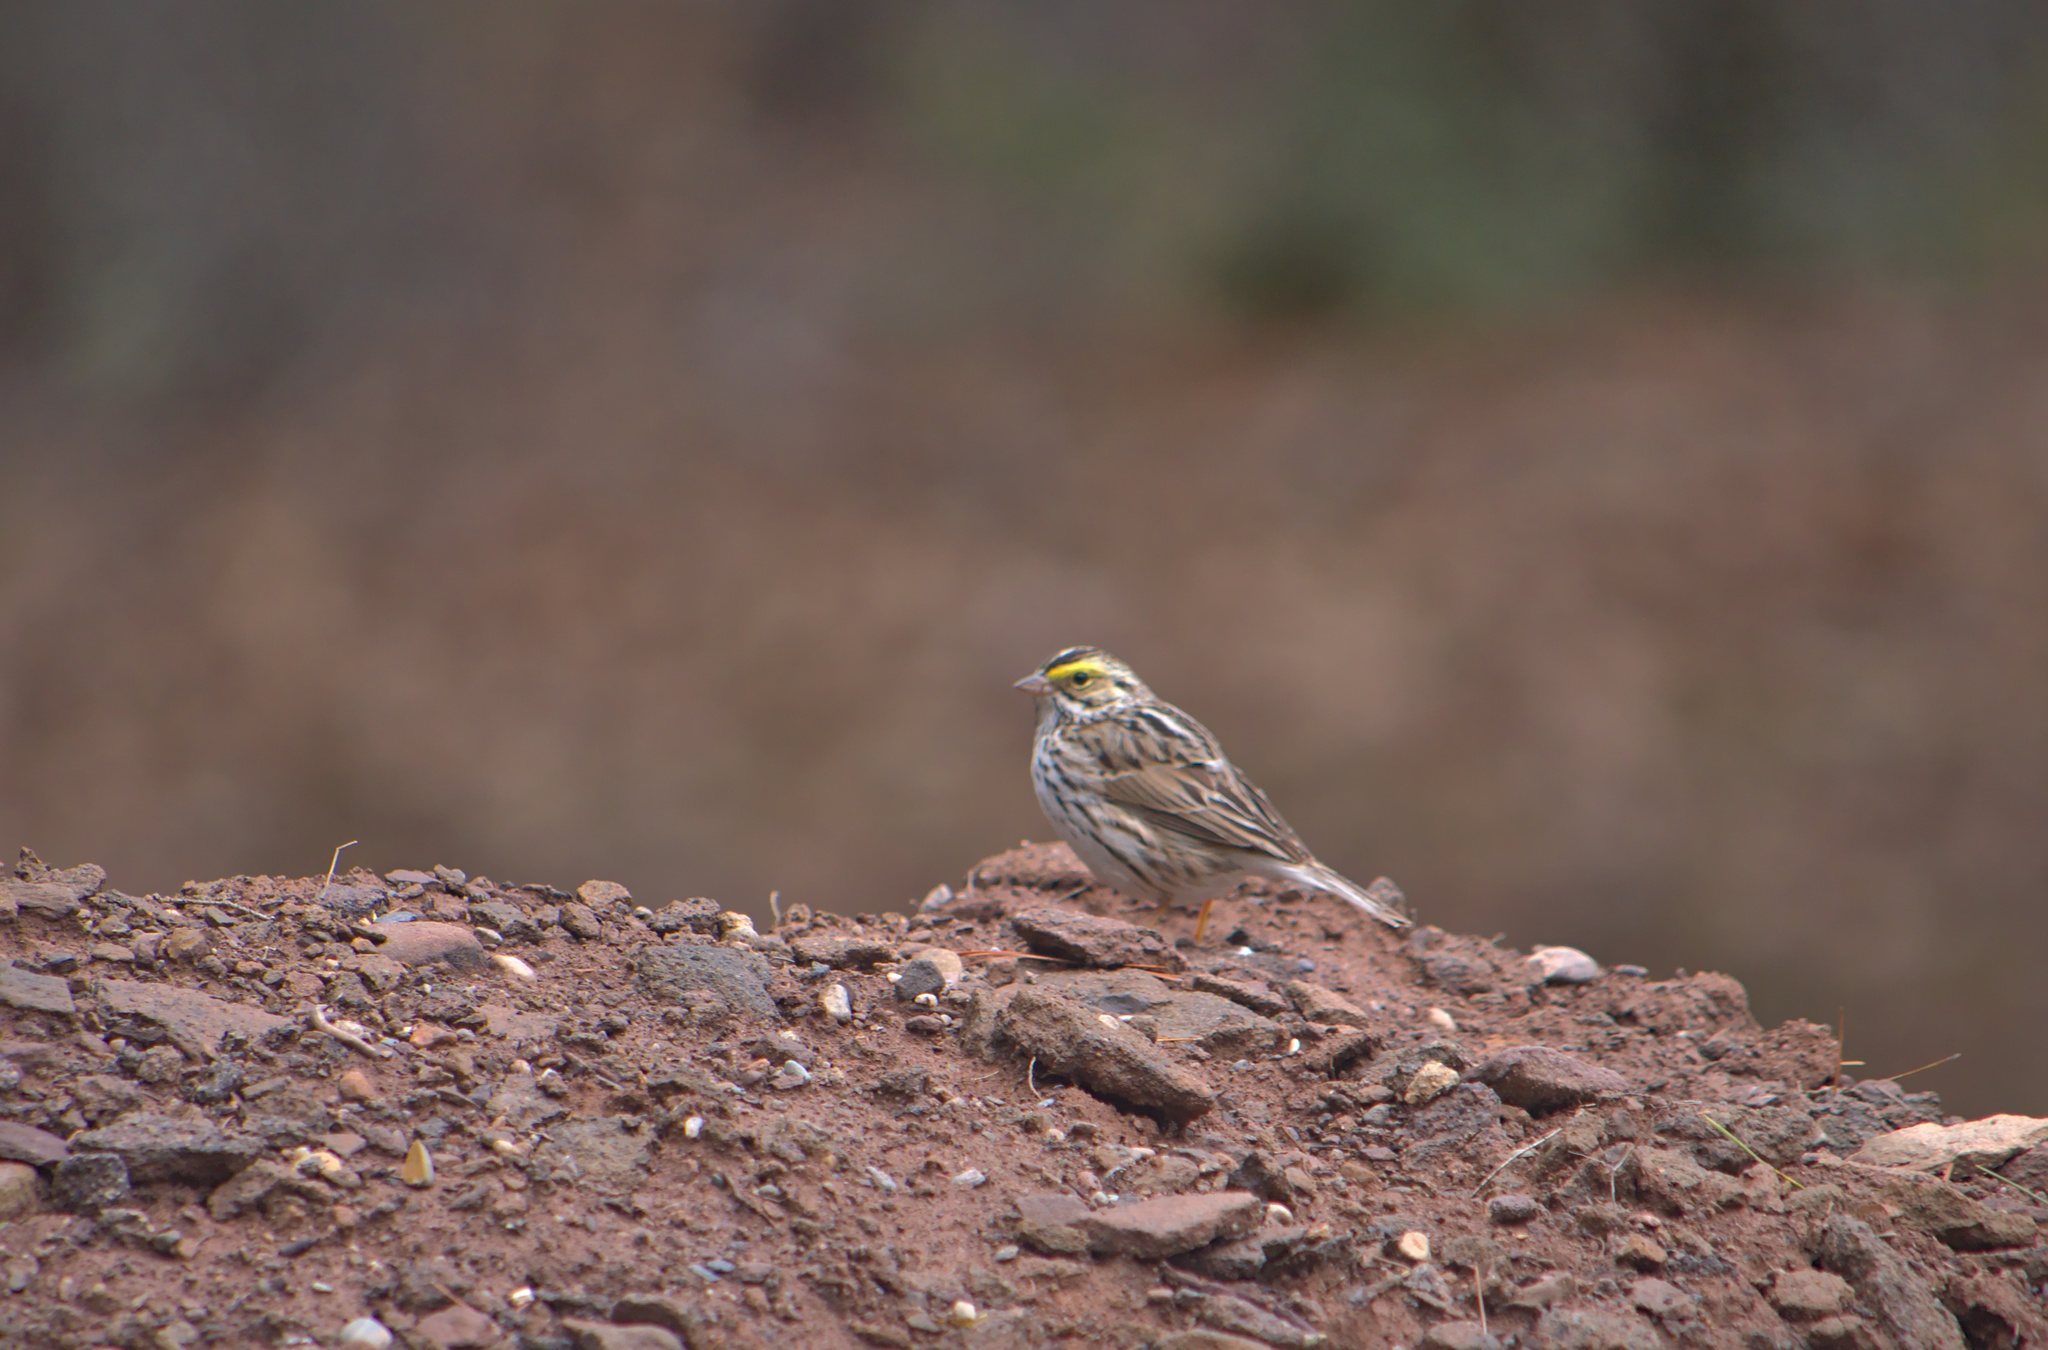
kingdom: Animalia
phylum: Chordata
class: Aves
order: Passeriformes
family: Passerellidae
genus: Passerculus
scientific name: Passerculus sandwichensis
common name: Savannah sparrow
